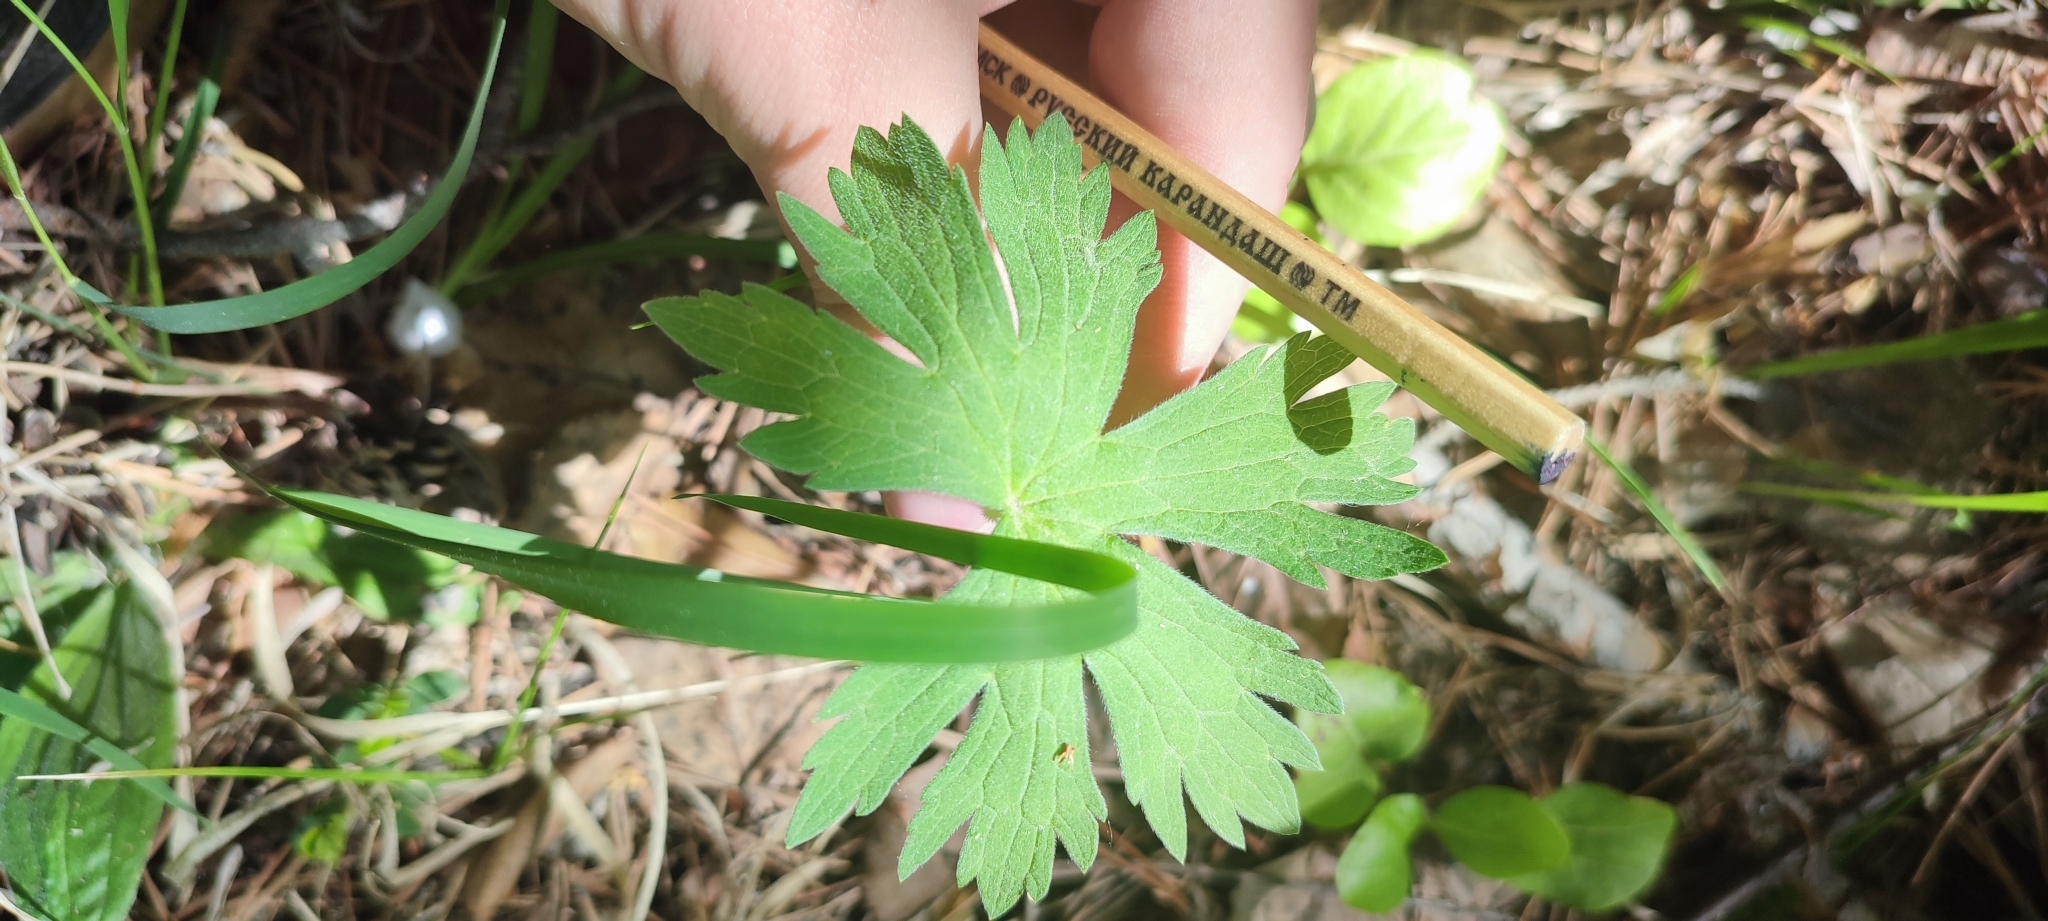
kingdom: Plantae
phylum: Tracheophyta
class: Magnoliopsida
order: Geraniales
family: Geraniaceae
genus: Geranium
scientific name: Geranium sylvaticum
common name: Wood crane's-bill
